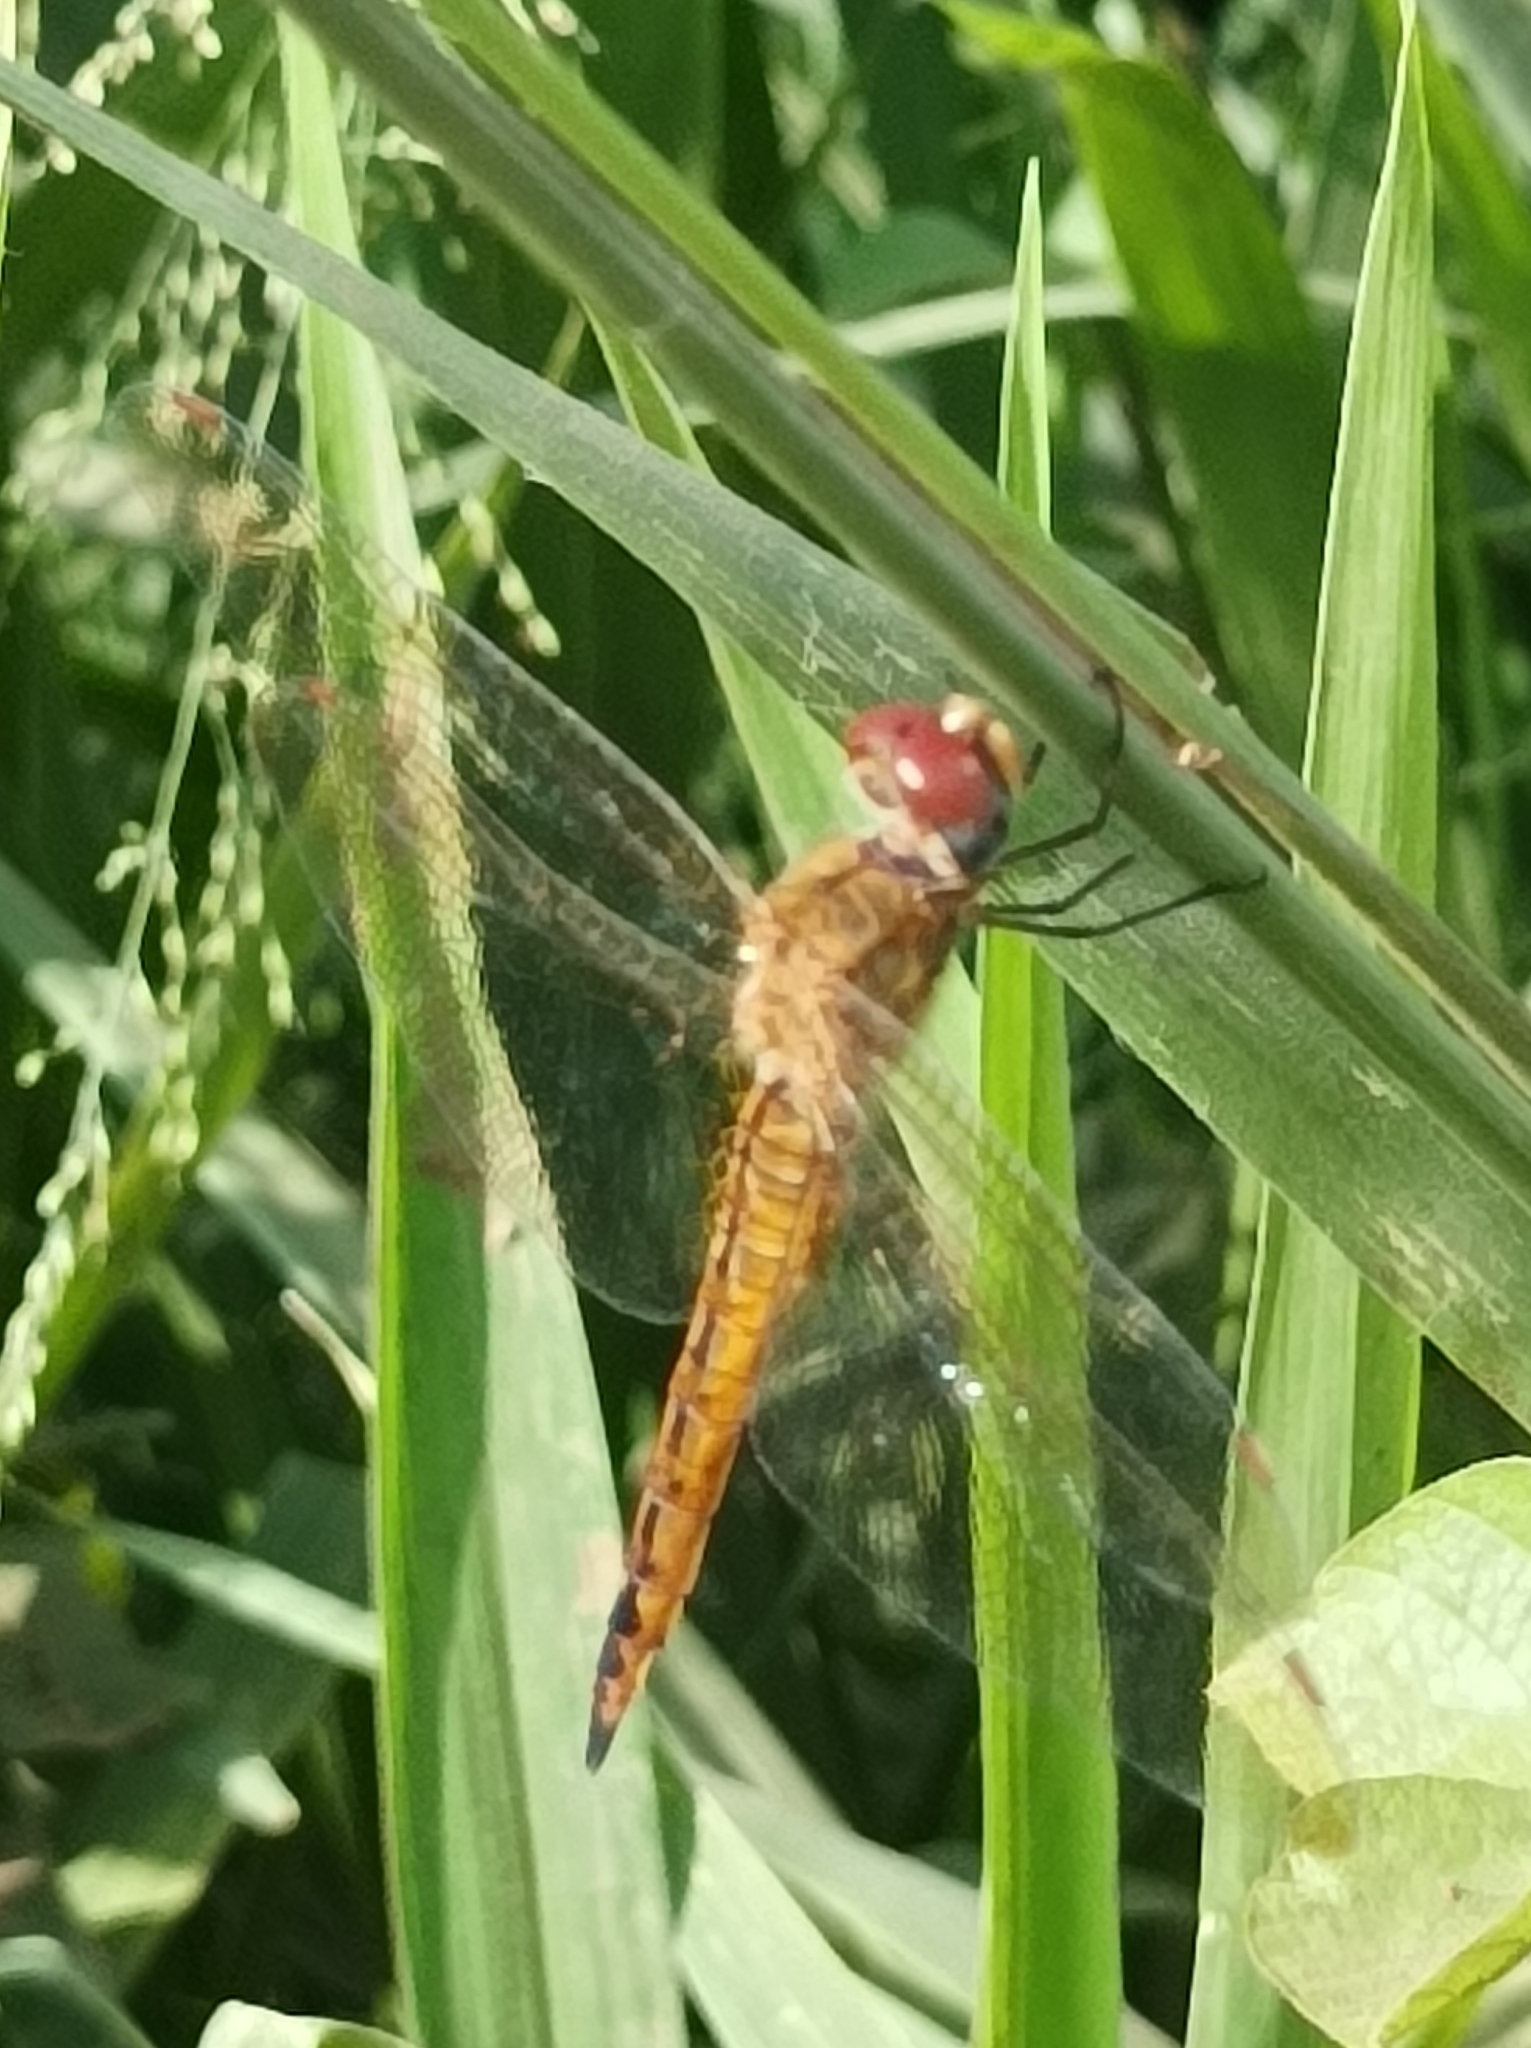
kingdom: Animalia
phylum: Arthropoda
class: Insecta
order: Odonata
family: Libellulidae
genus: Pantala
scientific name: Pantala flavescens
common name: Wandering glider
